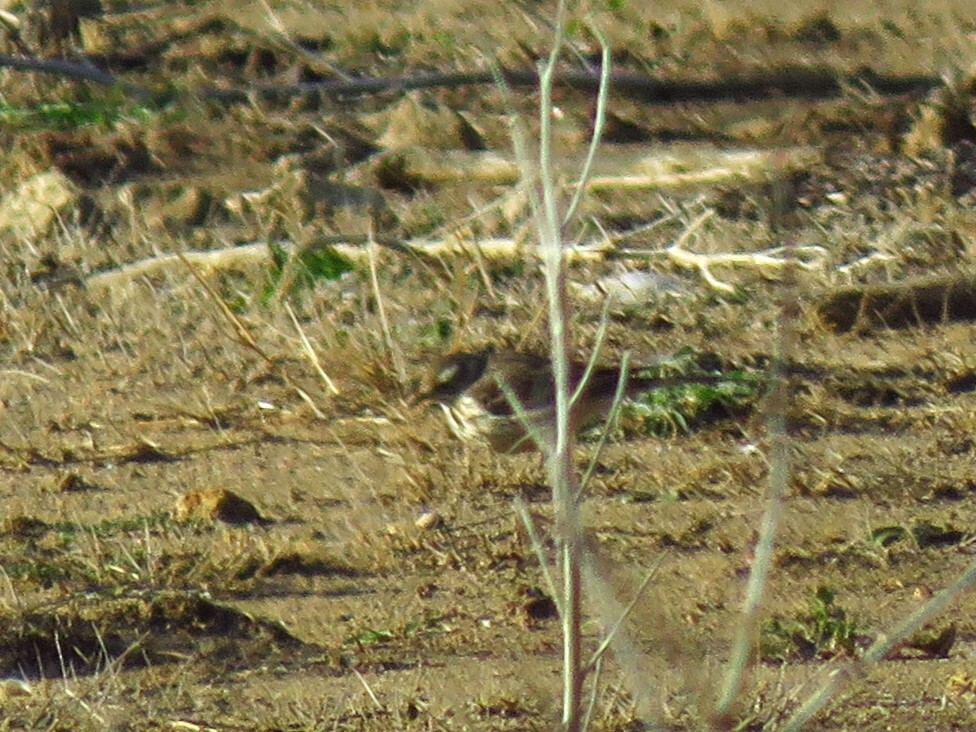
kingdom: Animalia
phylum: Chordata
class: Aves
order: Passeriformes
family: Motacillidae
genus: Anthus
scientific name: Anthus rubescens
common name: Buff-bellied pipit
